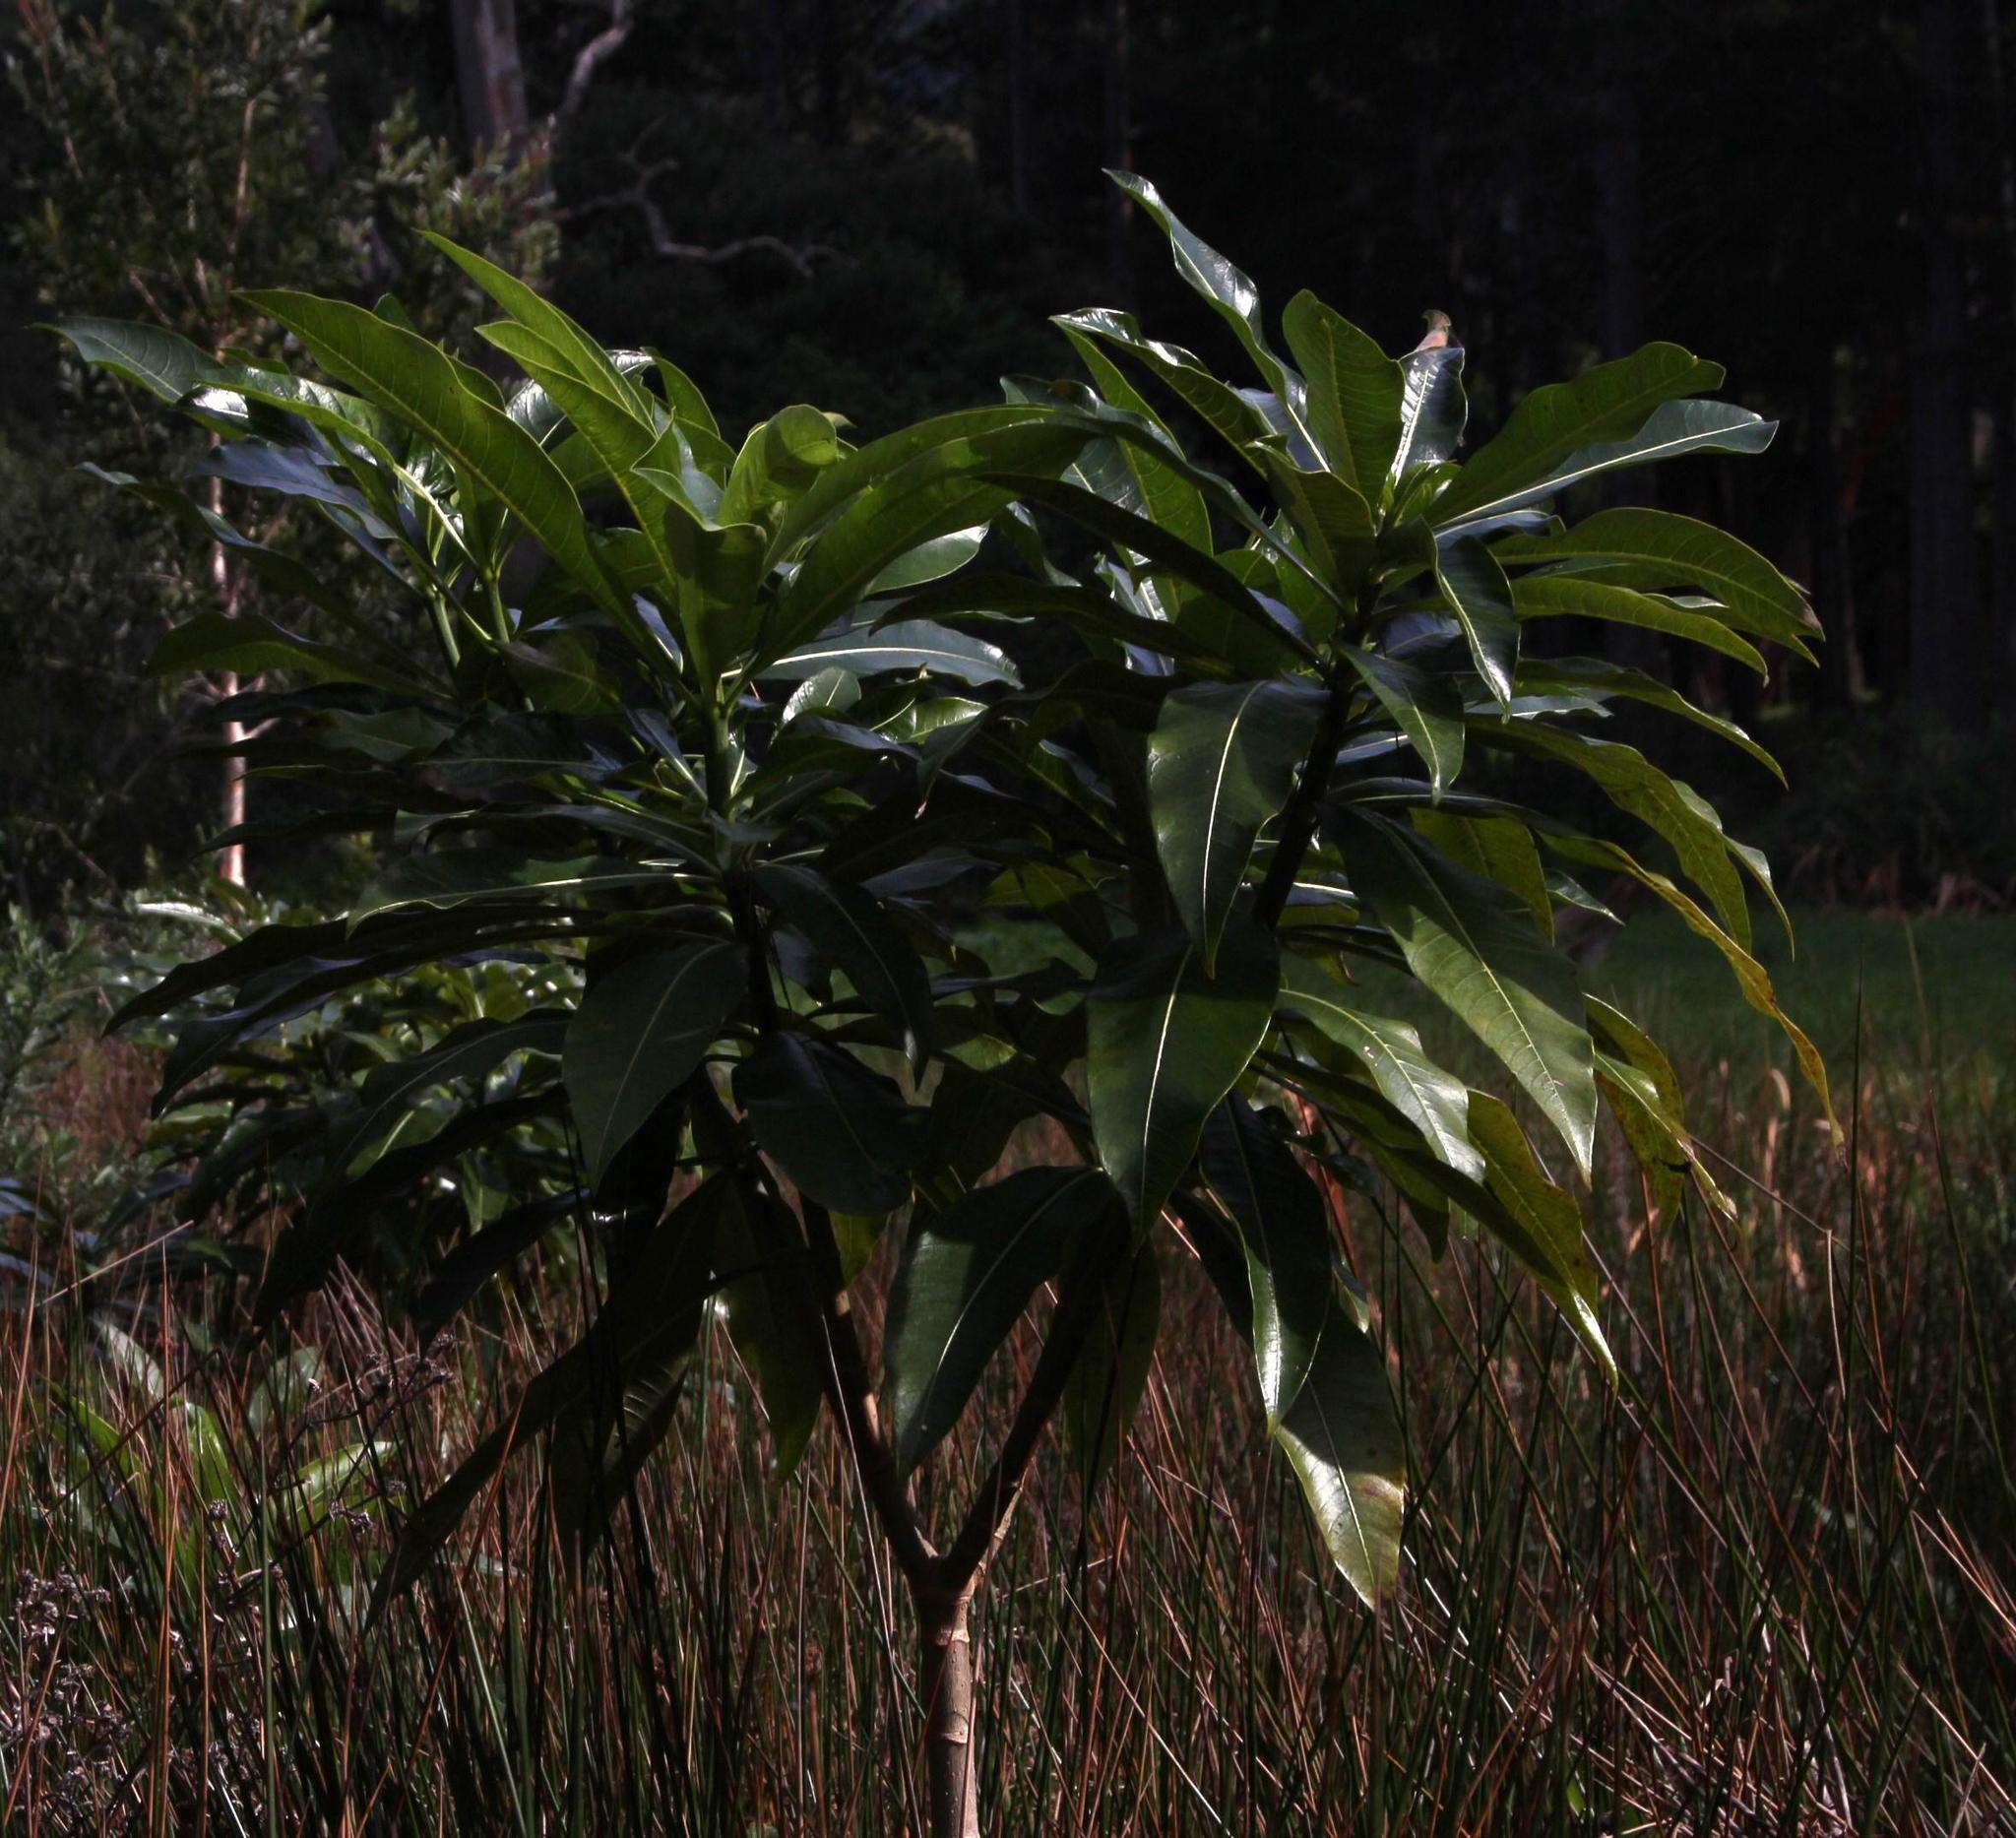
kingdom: Plantae
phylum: Tracheophyta
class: Magnoliopsida
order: Gentianales
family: Apocynaceae
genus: Rauvolfia
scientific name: Rauvolfia caffra
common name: Quininetree
